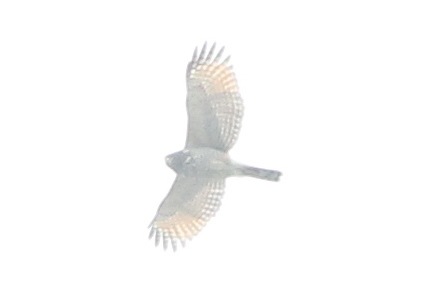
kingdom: Animalia
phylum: Chordata
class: Aves
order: Accipitriformes
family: Accipitridae
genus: Rupornis
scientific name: Rupornis magnirostris
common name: Roadside hawk
